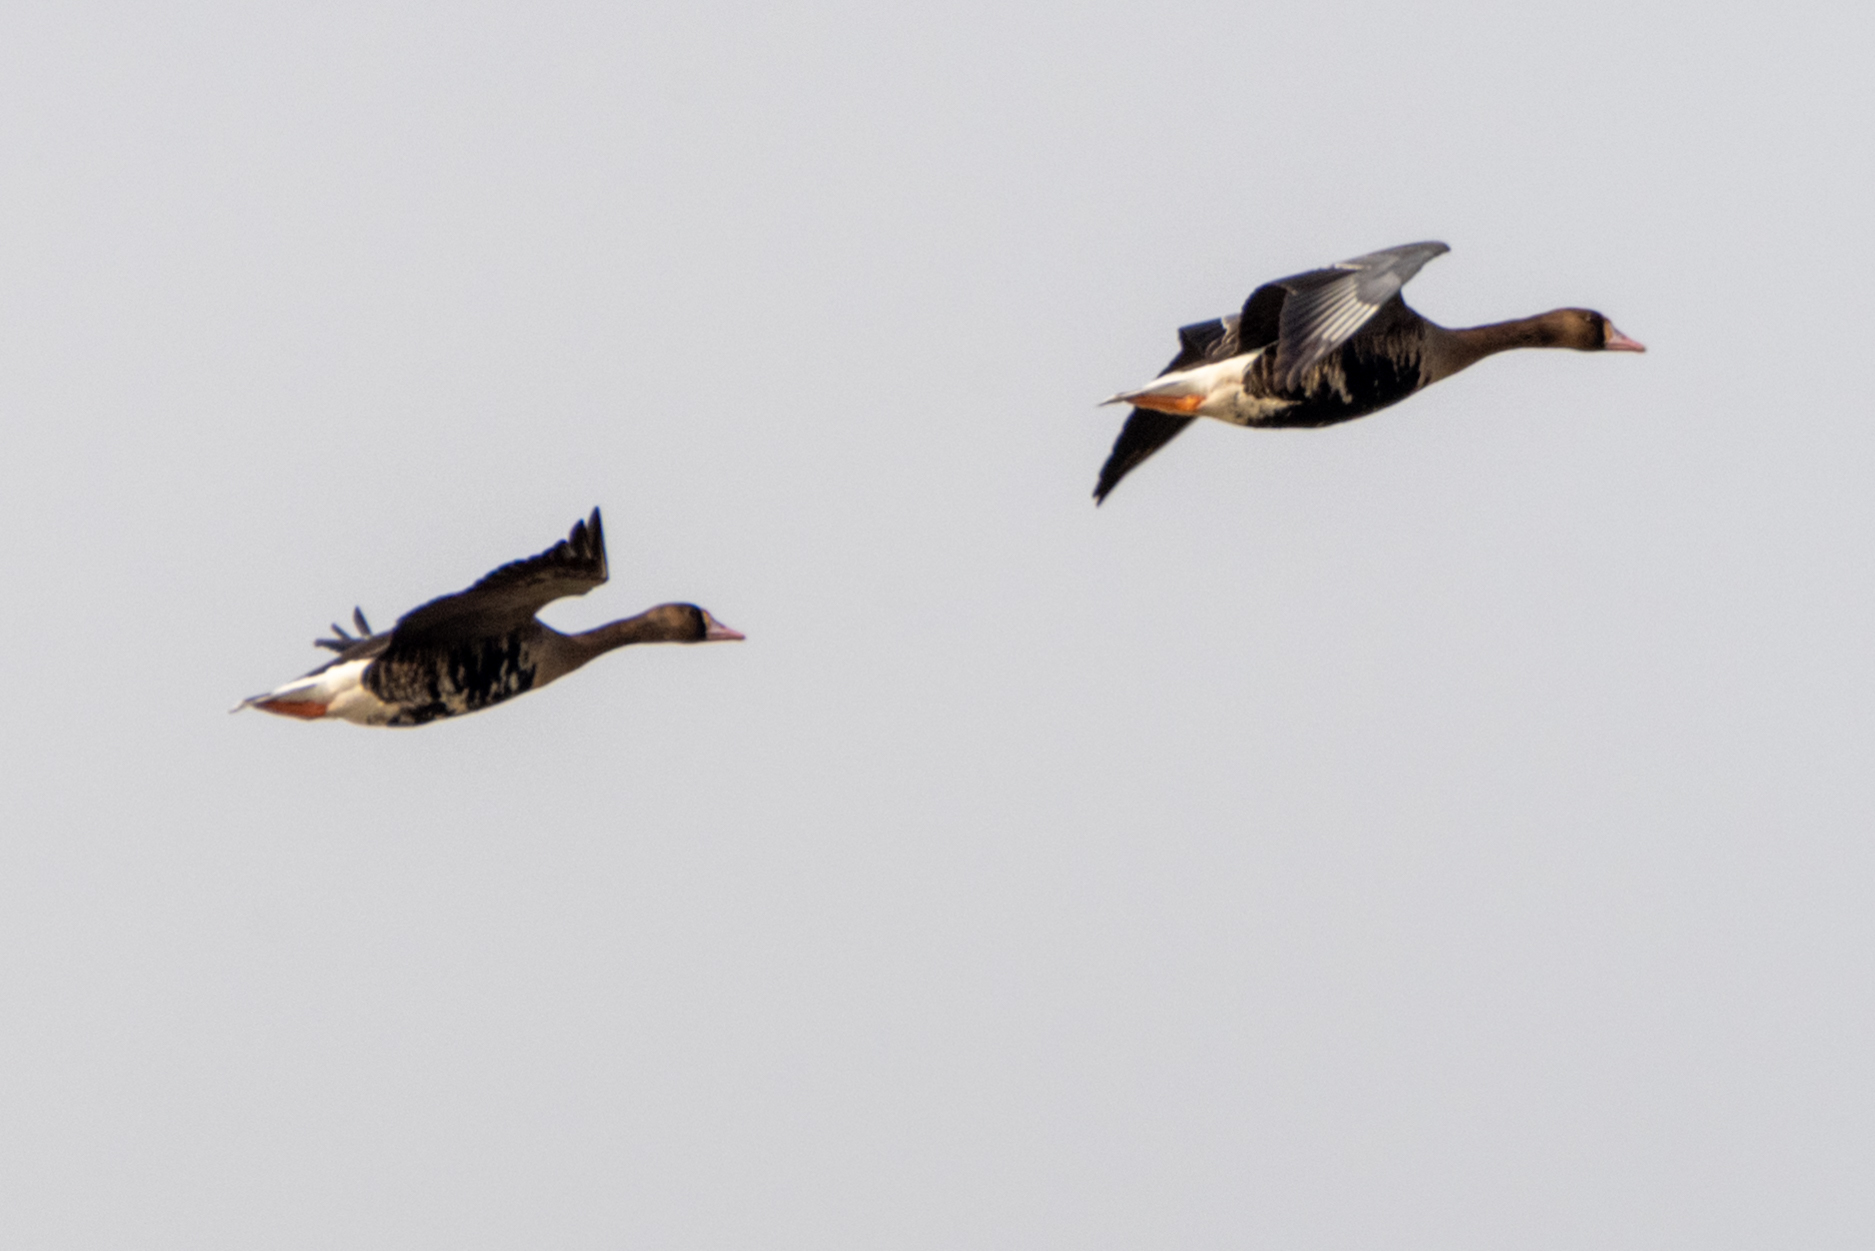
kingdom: Animalia
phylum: Chordata
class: Aves
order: Anseriformes
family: Anatidae
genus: Anser
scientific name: Anser albifrons
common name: Greater white-fronted goose
